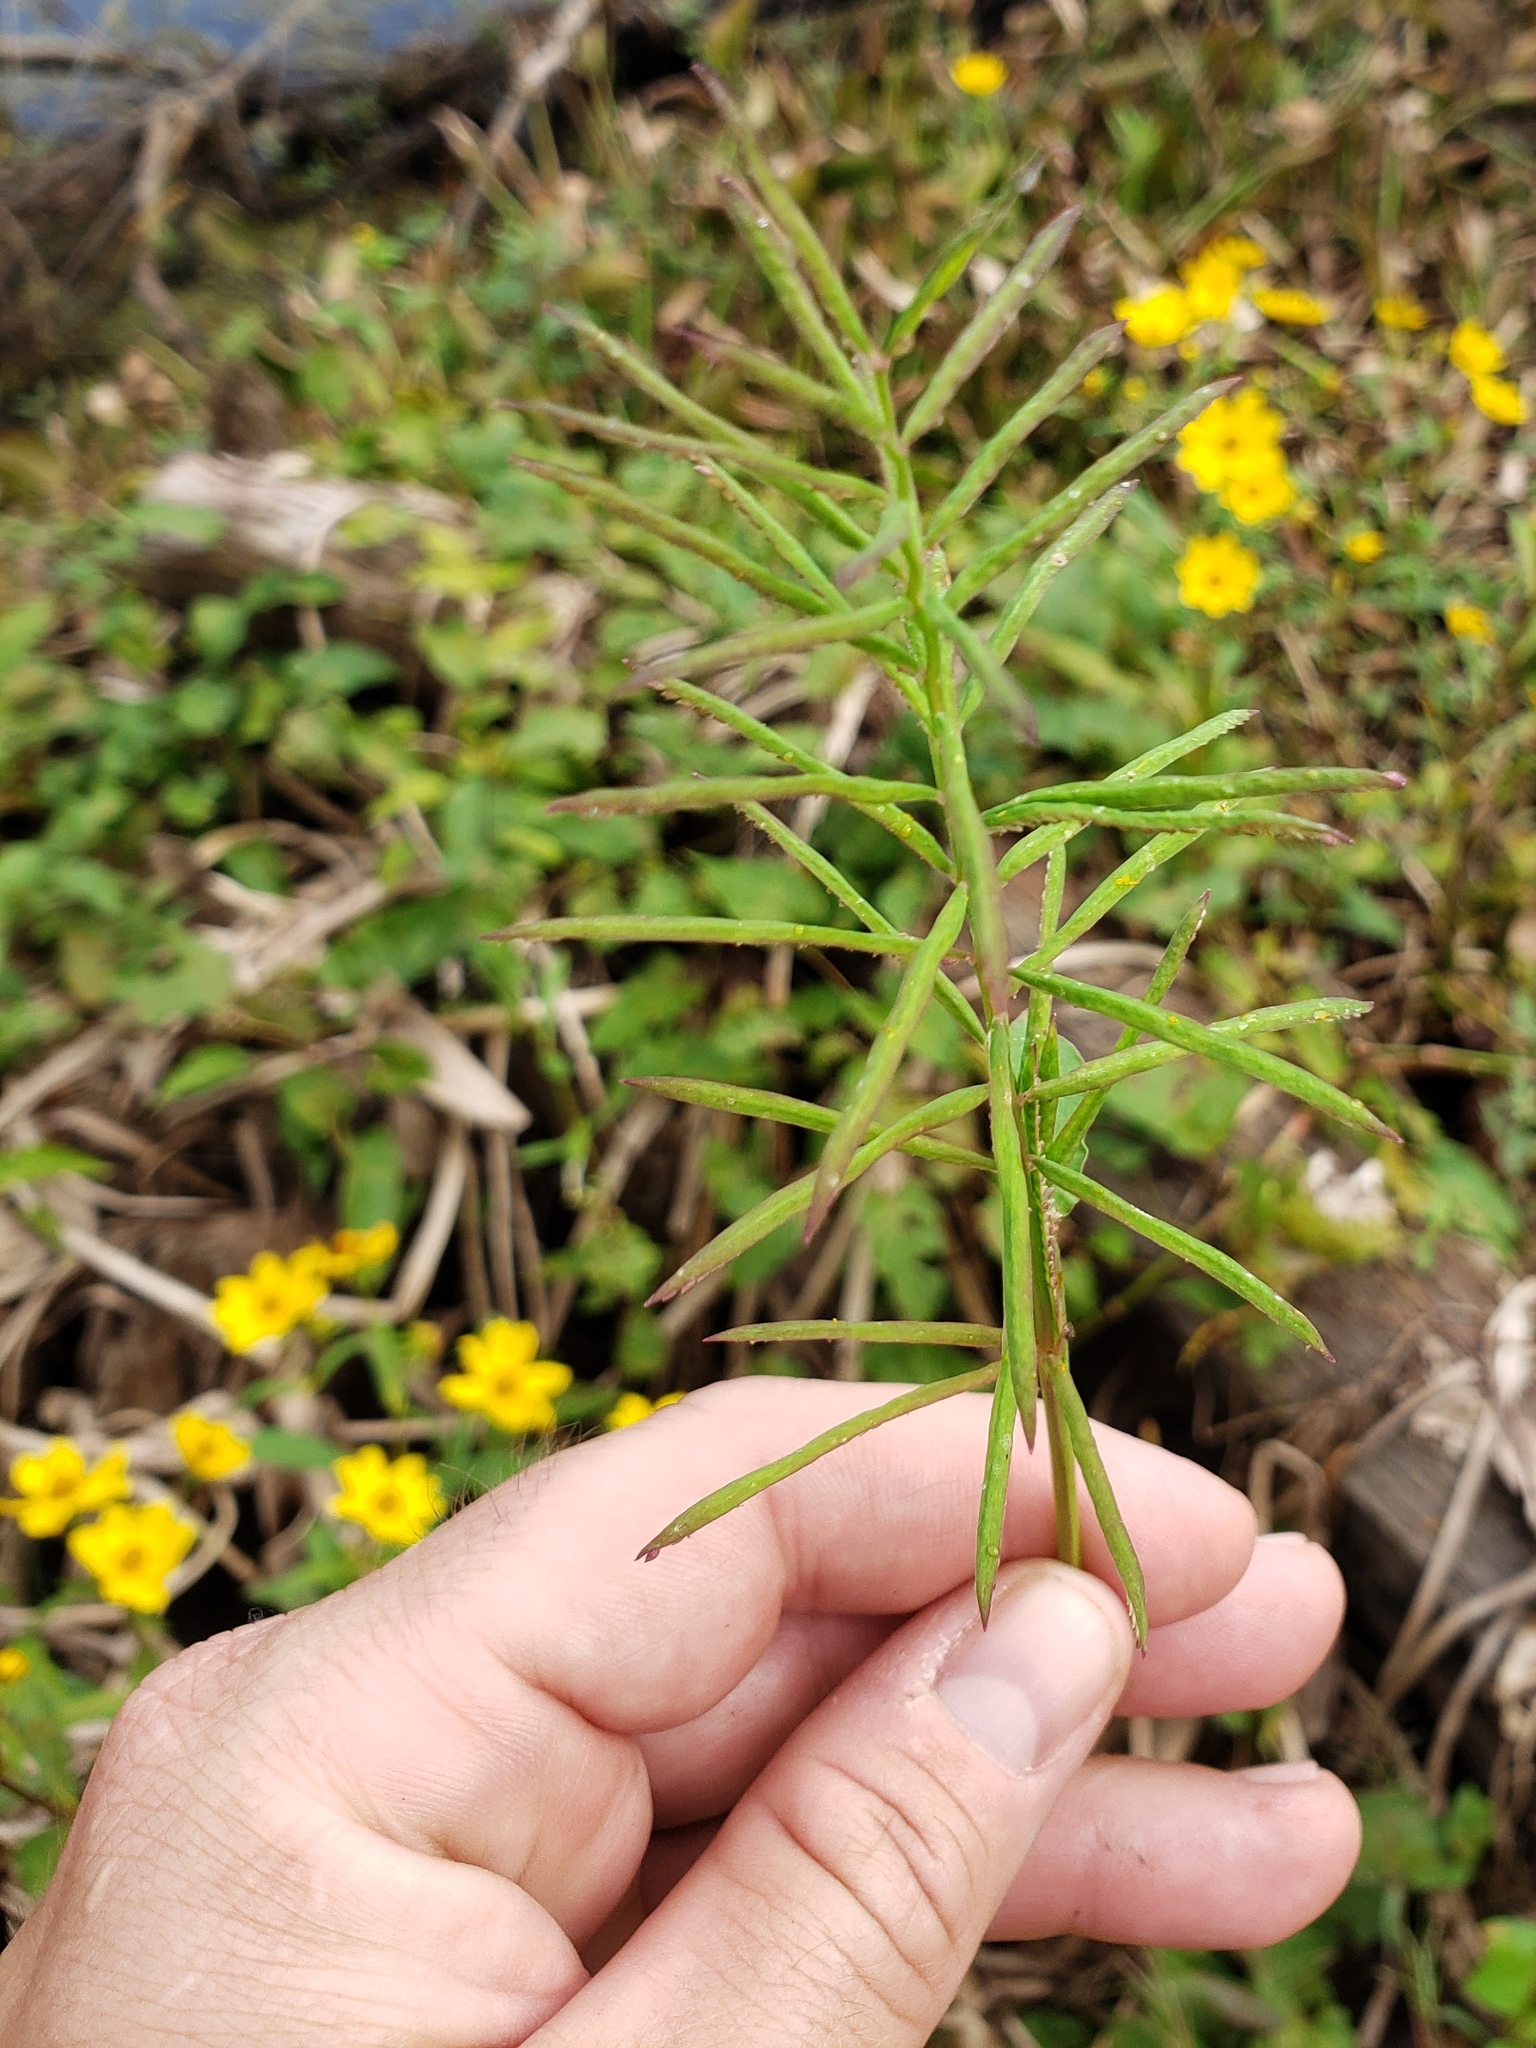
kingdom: Plantae
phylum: Tracheophyta
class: Liliopsida
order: Poales
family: Poaceae
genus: Paspalum
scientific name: Paspalum repens
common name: Water paspalum
